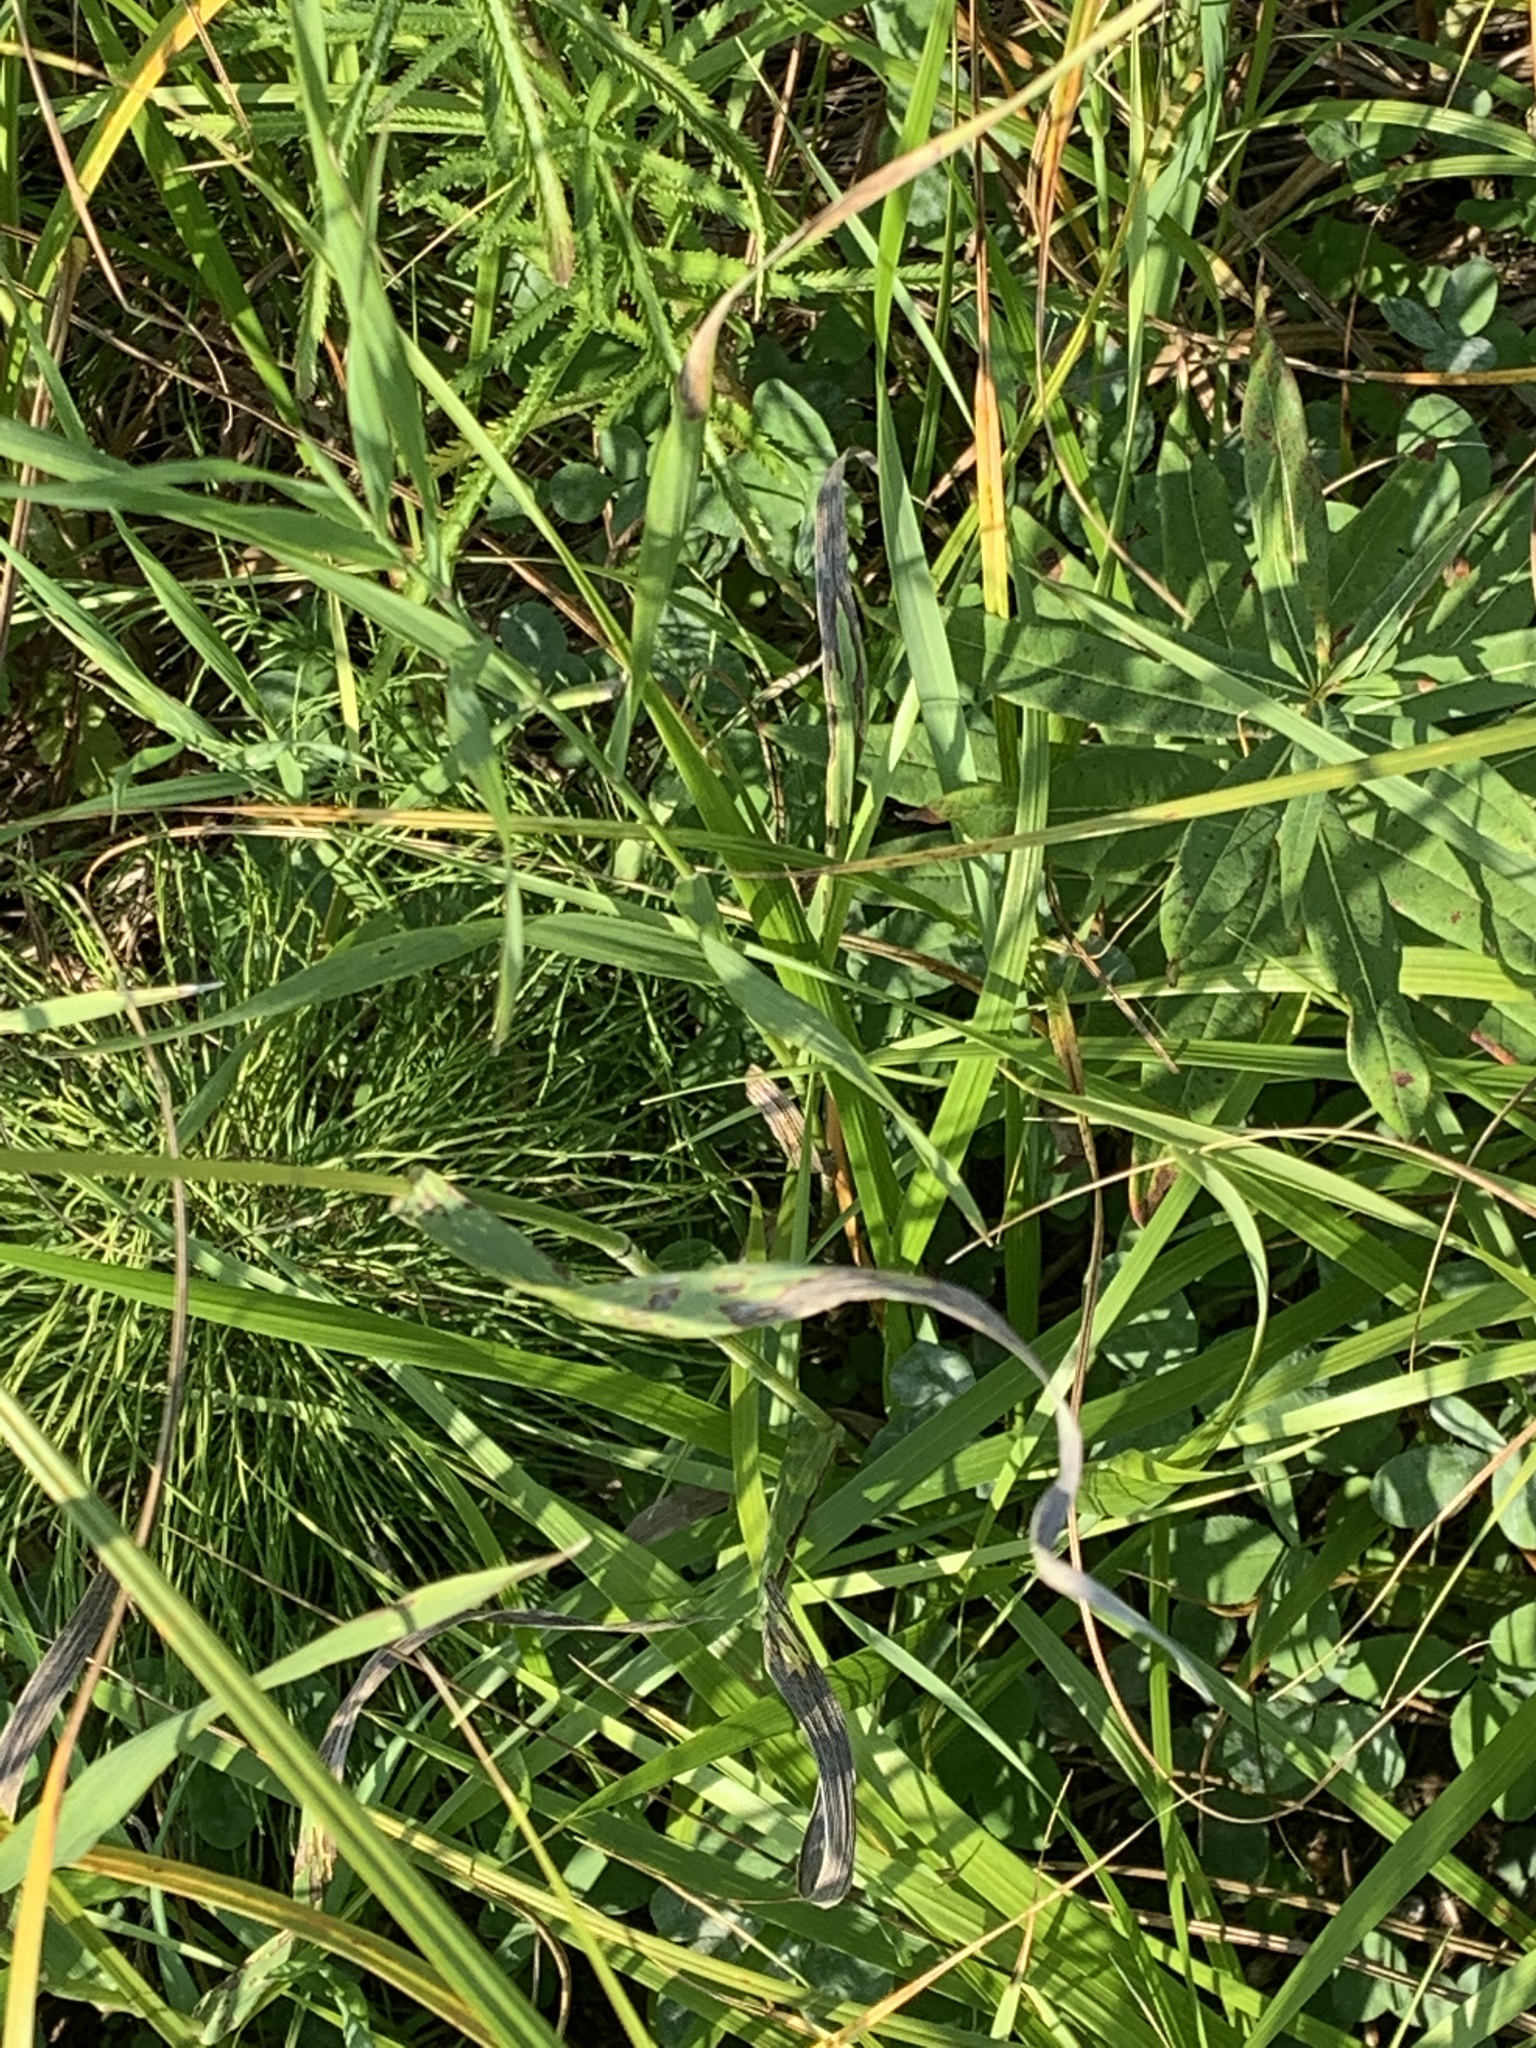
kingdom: Plantae
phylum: Tracheophyta
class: Liliopsida
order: Poales
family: Poaceae
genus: Bromus
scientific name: Bromus inermis
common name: Smooth brome
